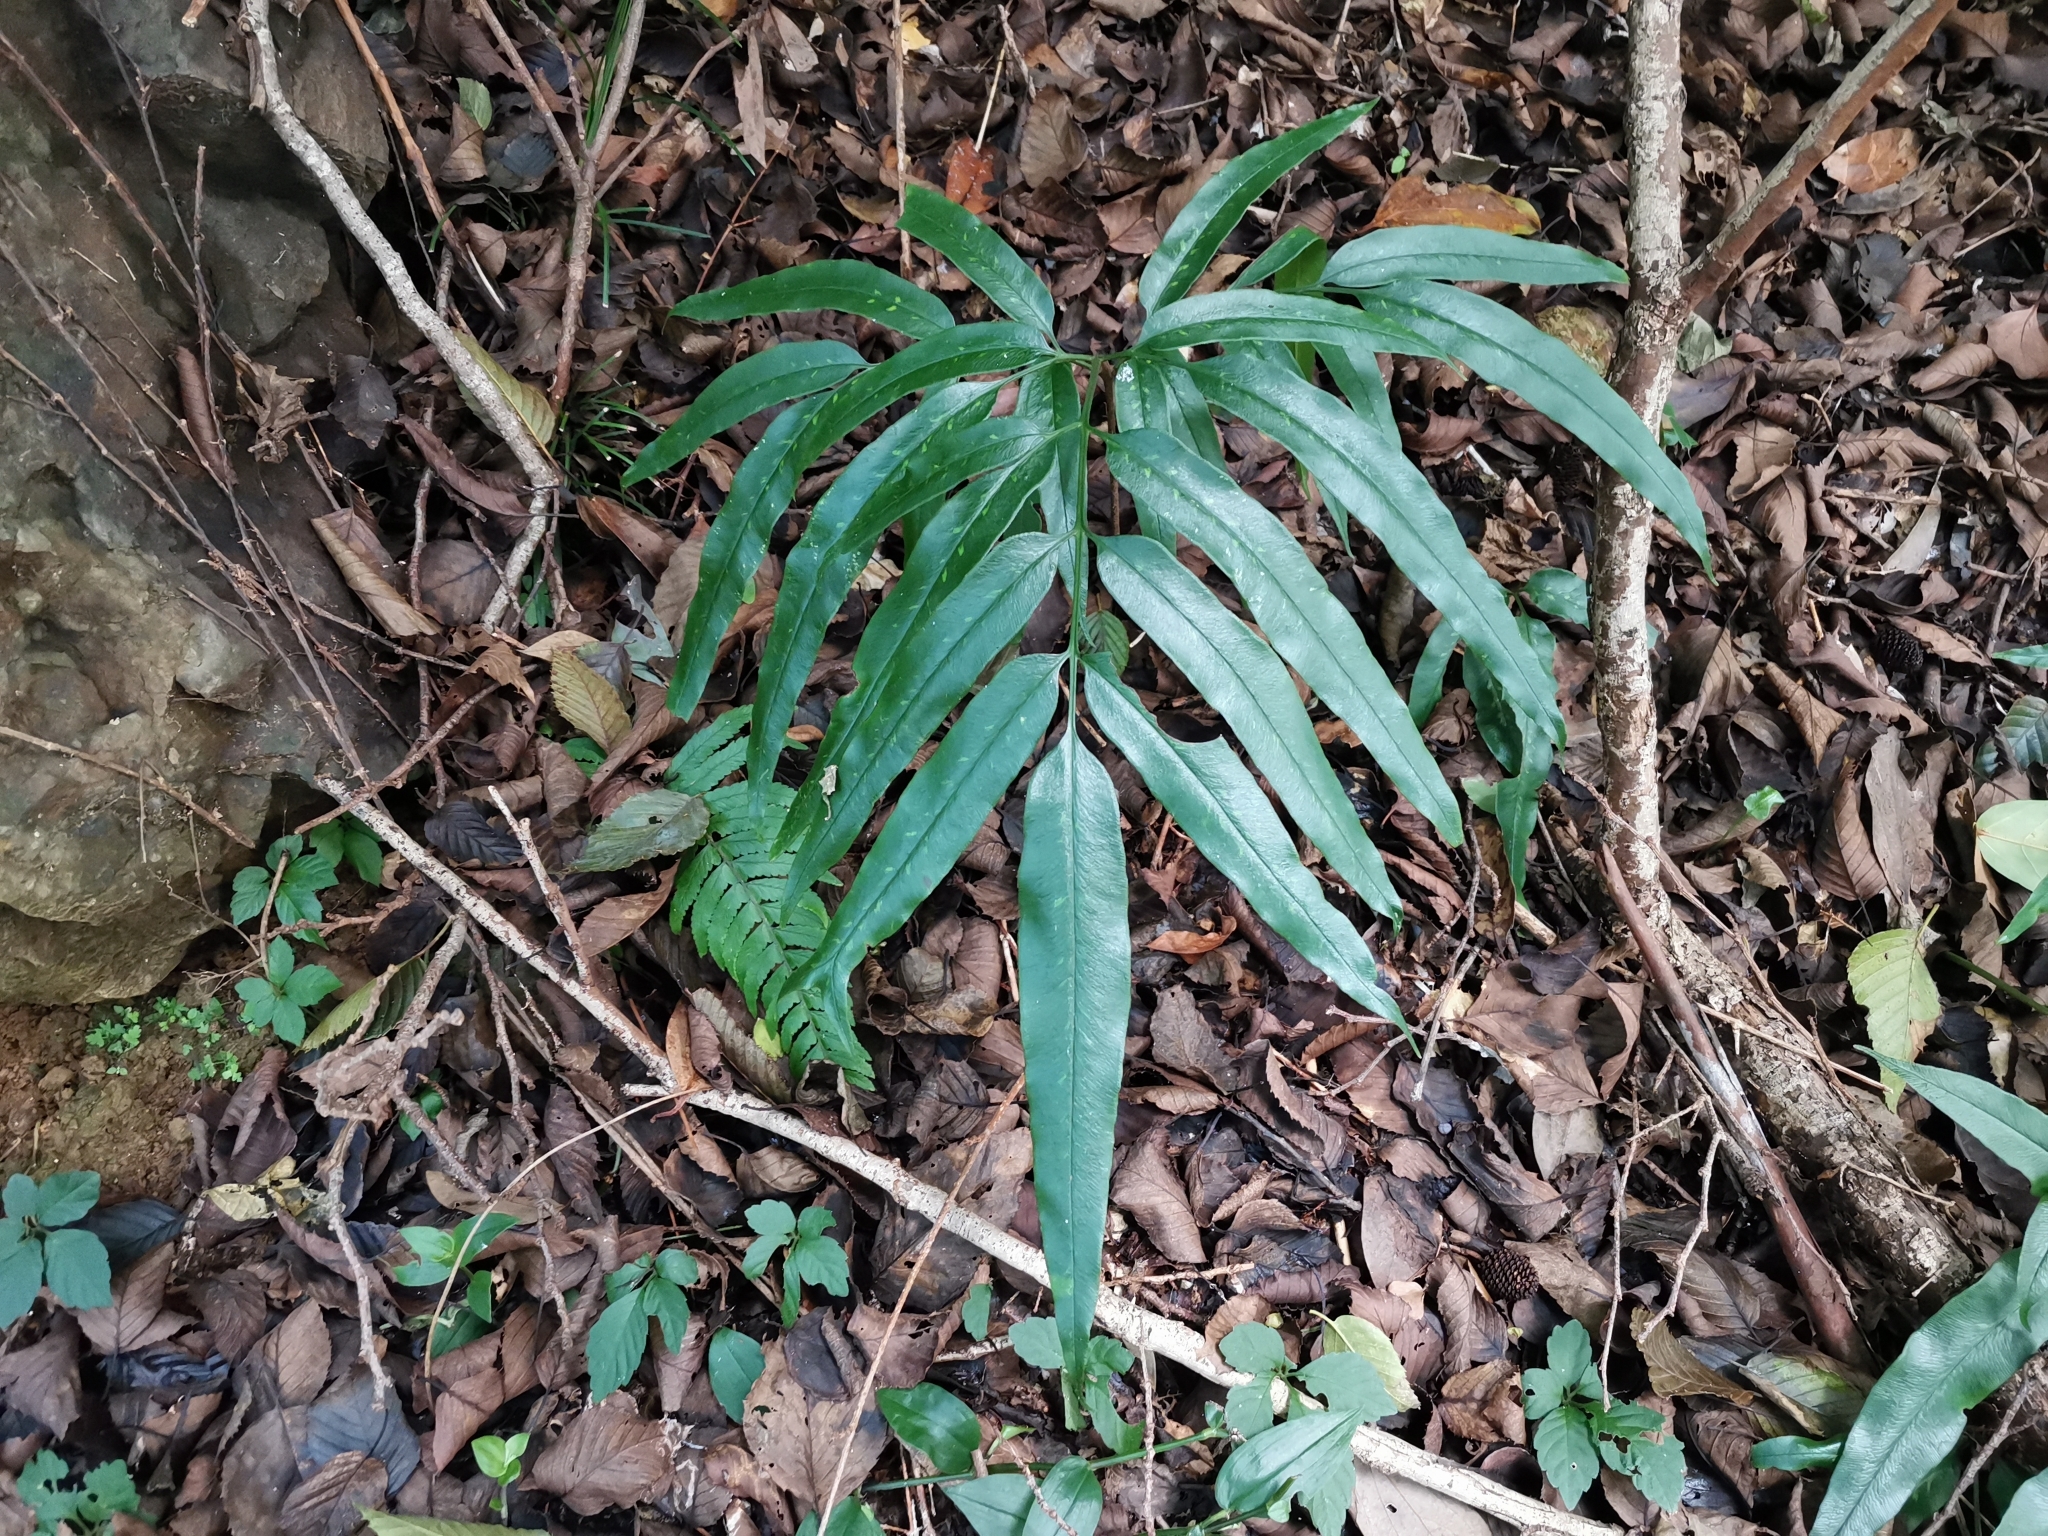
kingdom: Plantae
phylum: Tracheophyta
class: Polypodiopsida
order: Polypodiales
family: Pteridaceae
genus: Coniogramme
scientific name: Coniogramme japonica
